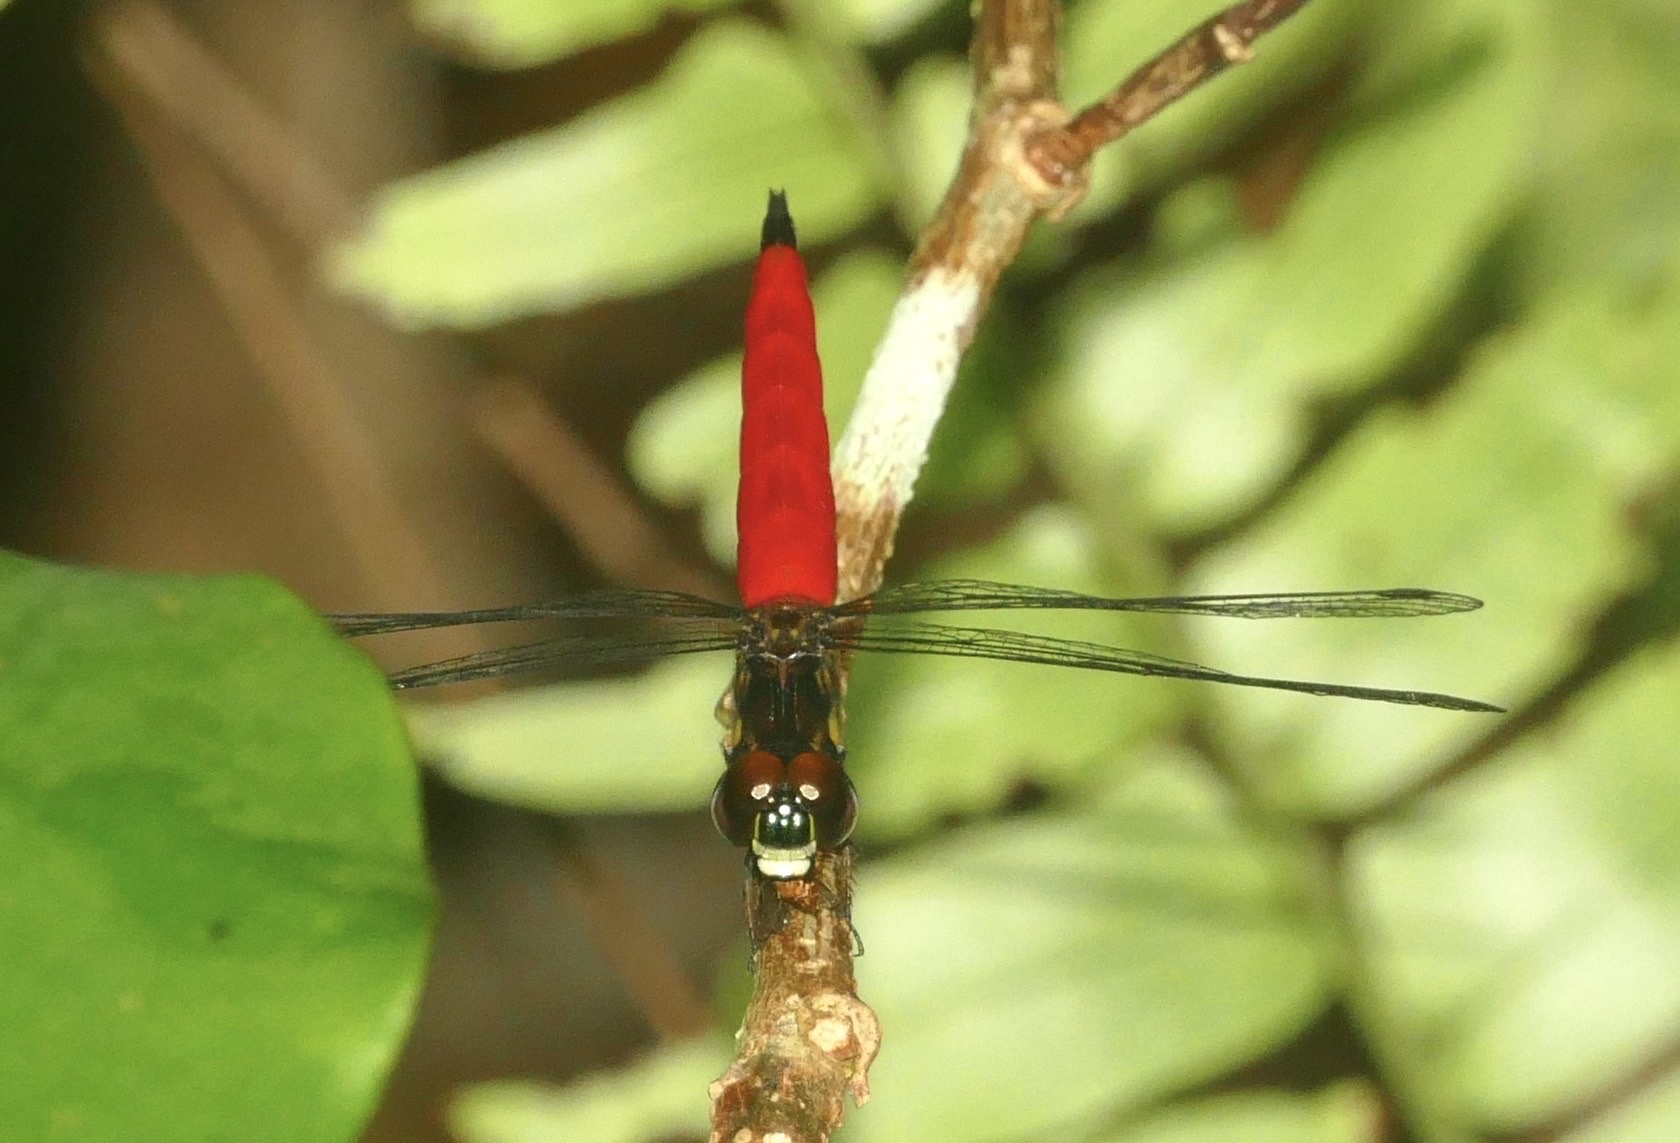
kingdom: Animalia
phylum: Arthropoda
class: Insecta
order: Odonata
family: Libellulidae
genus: Lyriothemis
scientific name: Lyriothemis meyeri
